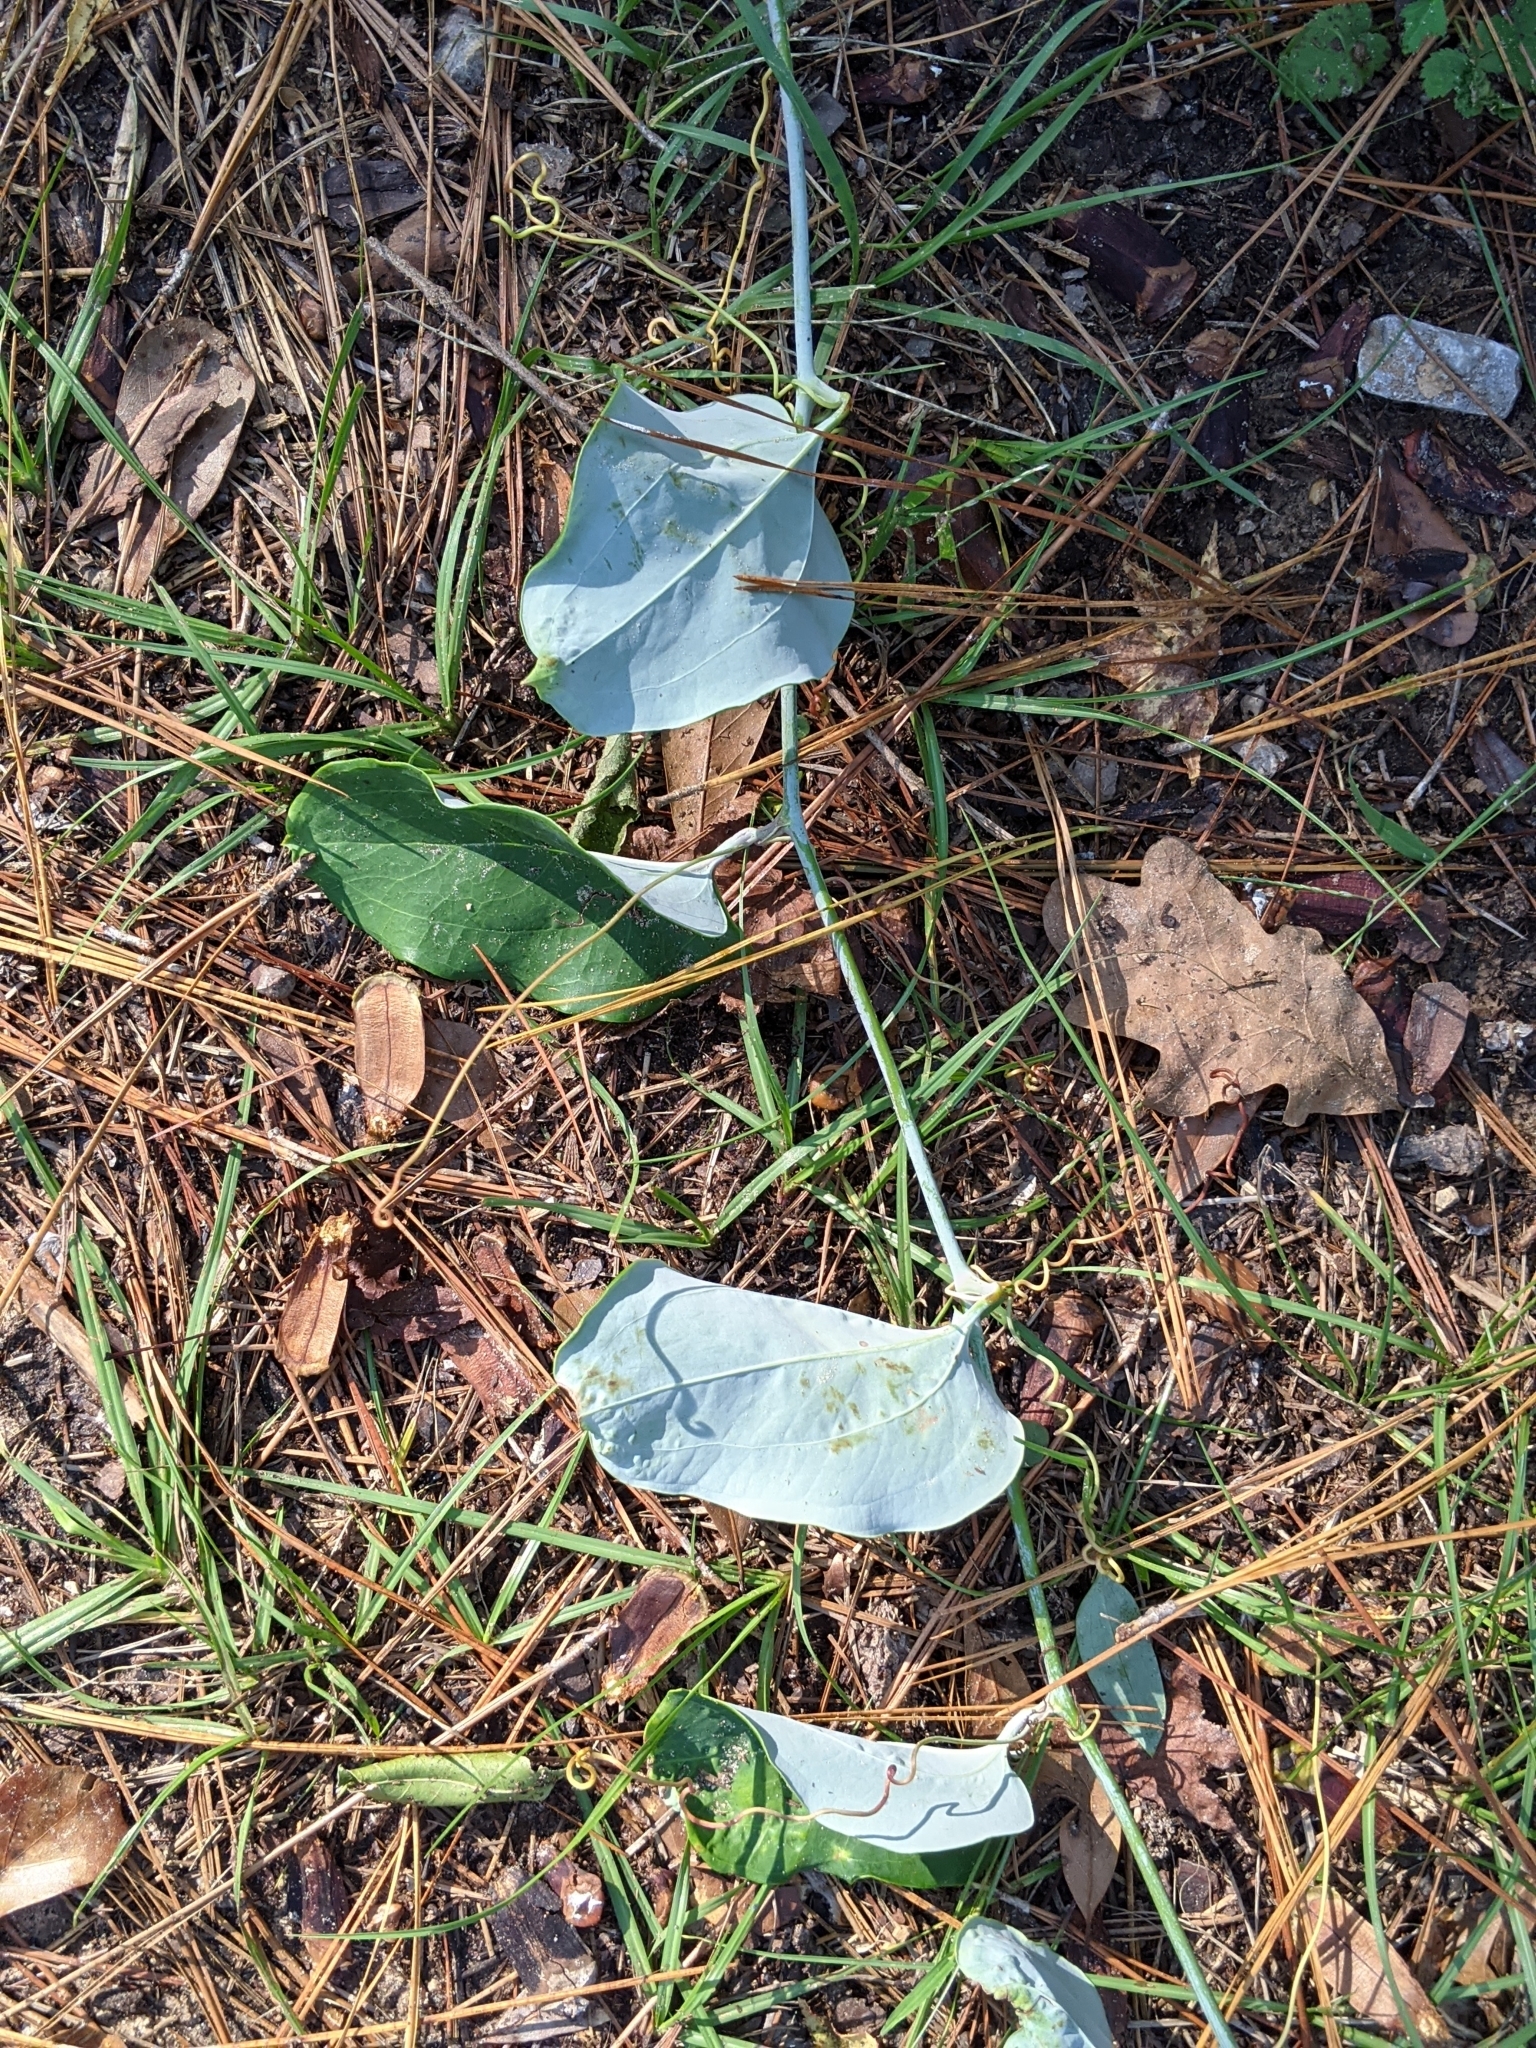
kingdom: Plantae
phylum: Tracheophyta
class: Liliopsida
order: Liliales
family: Smilacaceae
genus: Smilax
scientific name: Smilax glauca
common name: Cat greenbrier
